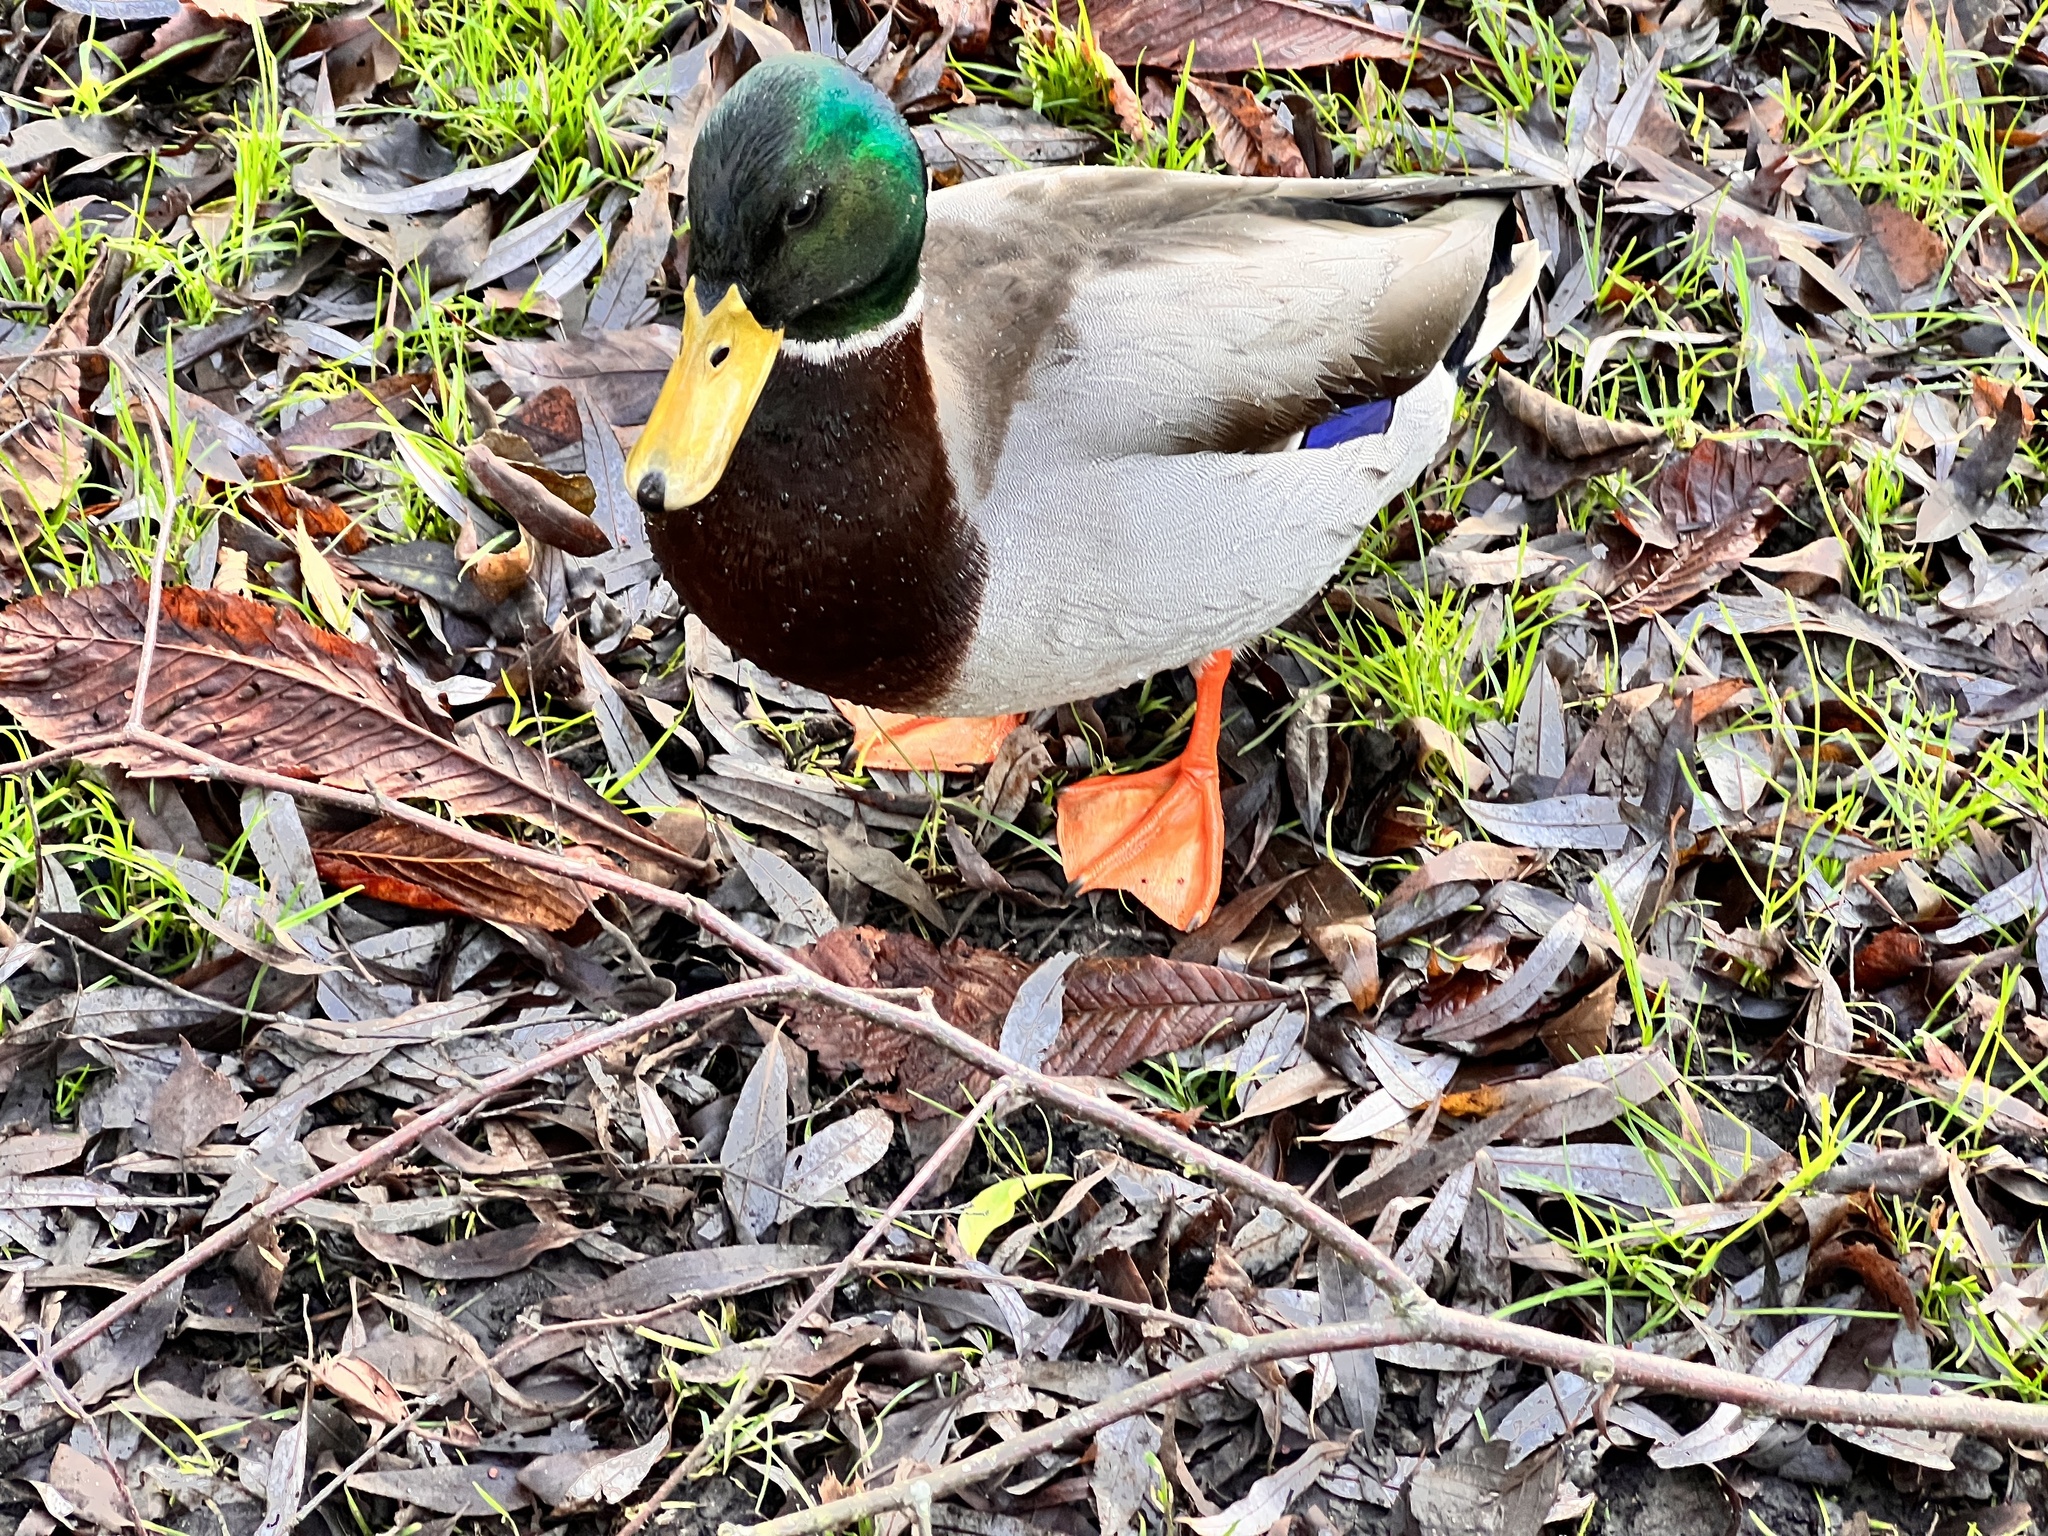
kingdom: Animalia
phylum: Chordata
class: Aves
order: Anseriformes
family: Anatidae
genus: Anas
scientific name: Anas platyrhynchos
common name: Mallard
